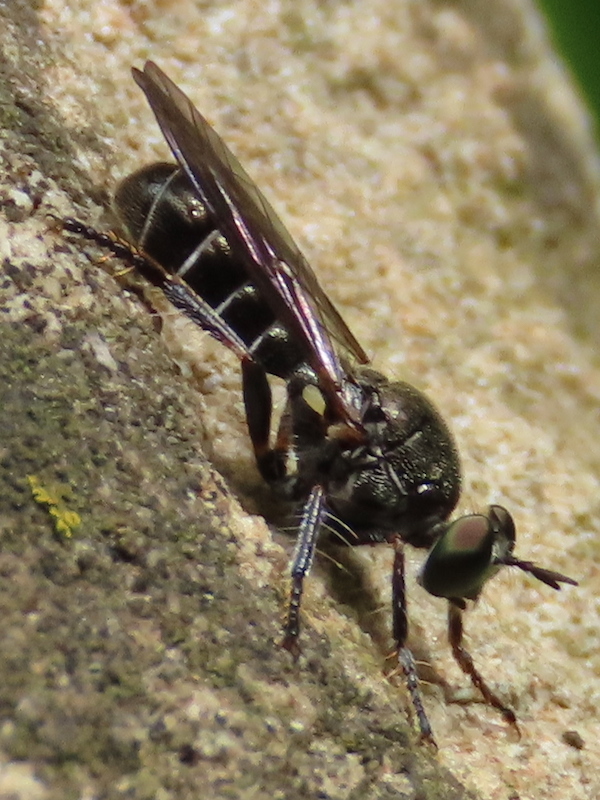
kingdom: Animalia
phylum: Arthropoda
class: Insecta
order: Diptera
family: Asilidae
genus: Atomosia
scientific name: Atomosia puella
